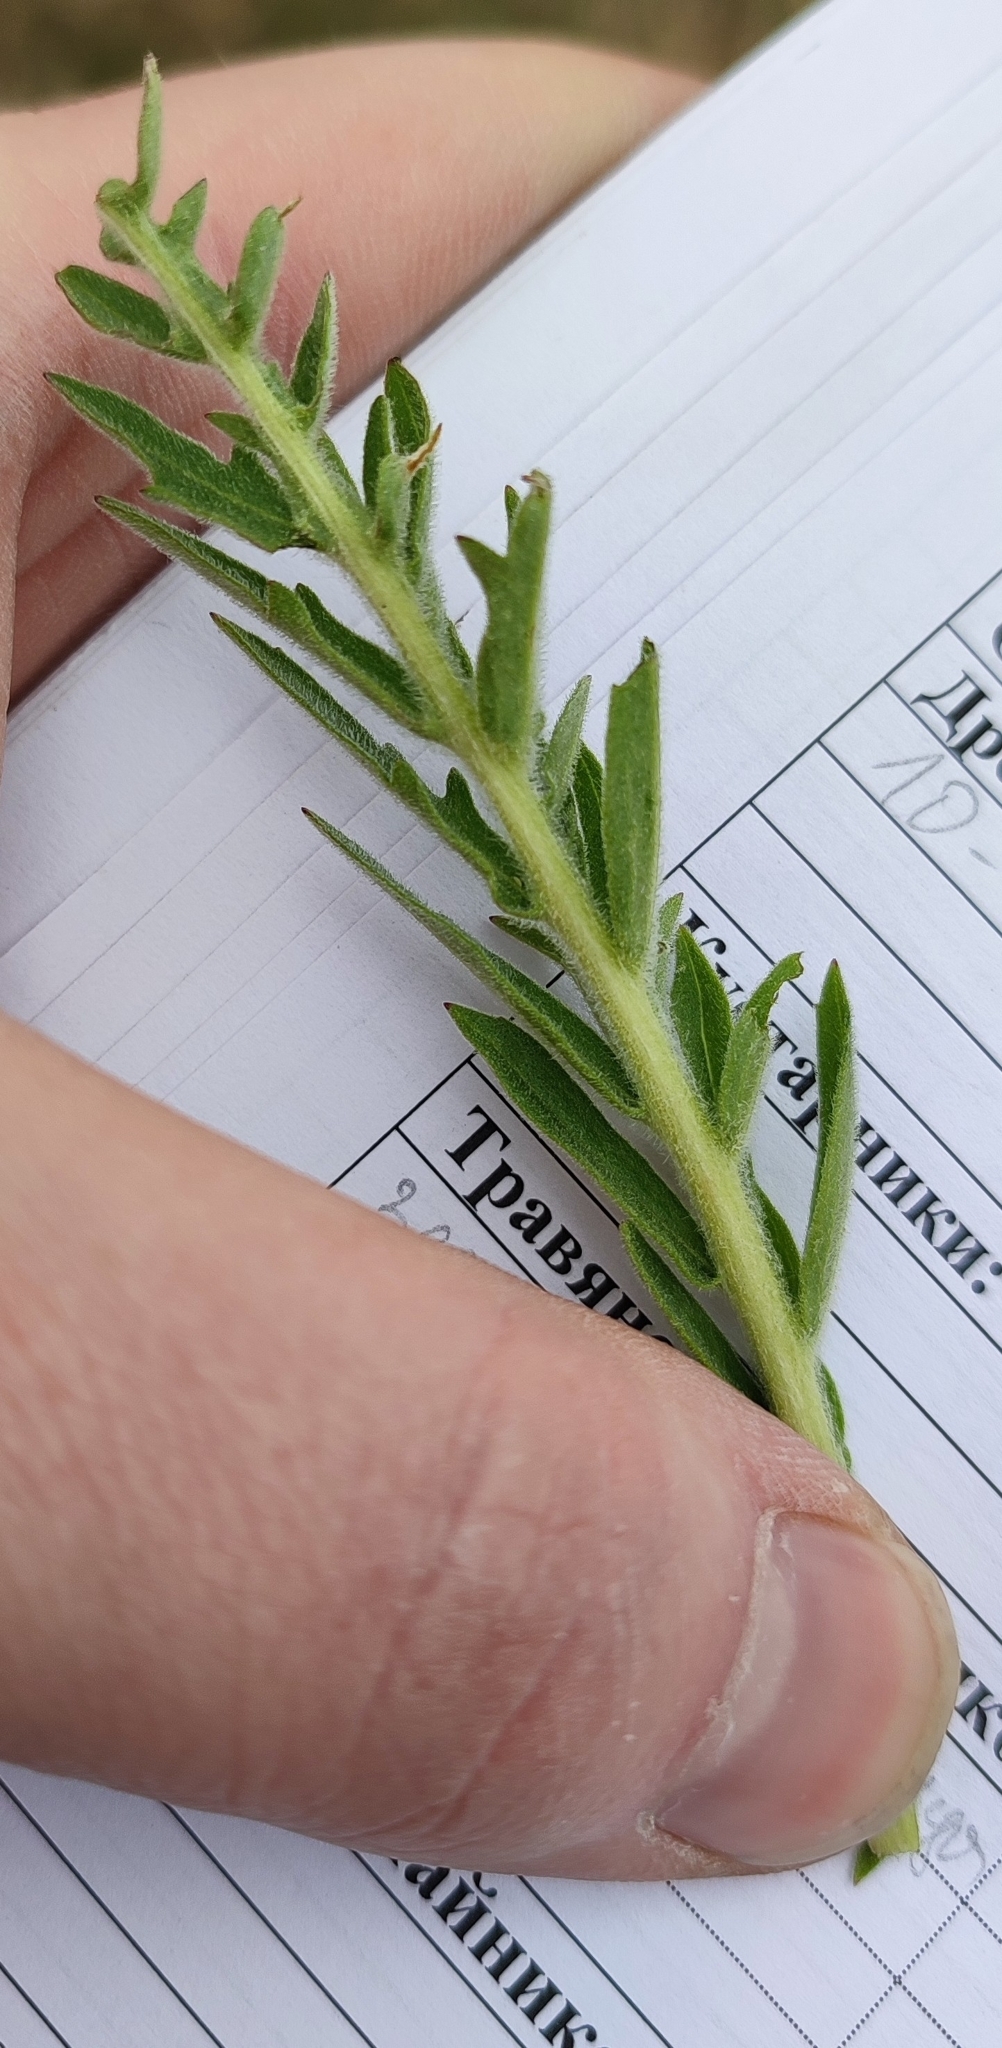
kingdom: Plantae
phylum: Tracheophyta
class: Magnoliopsida
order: Asterales
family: Asteraceae
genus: Centaurea
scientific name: Centaurea scabiosa
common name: Greater knapweed
